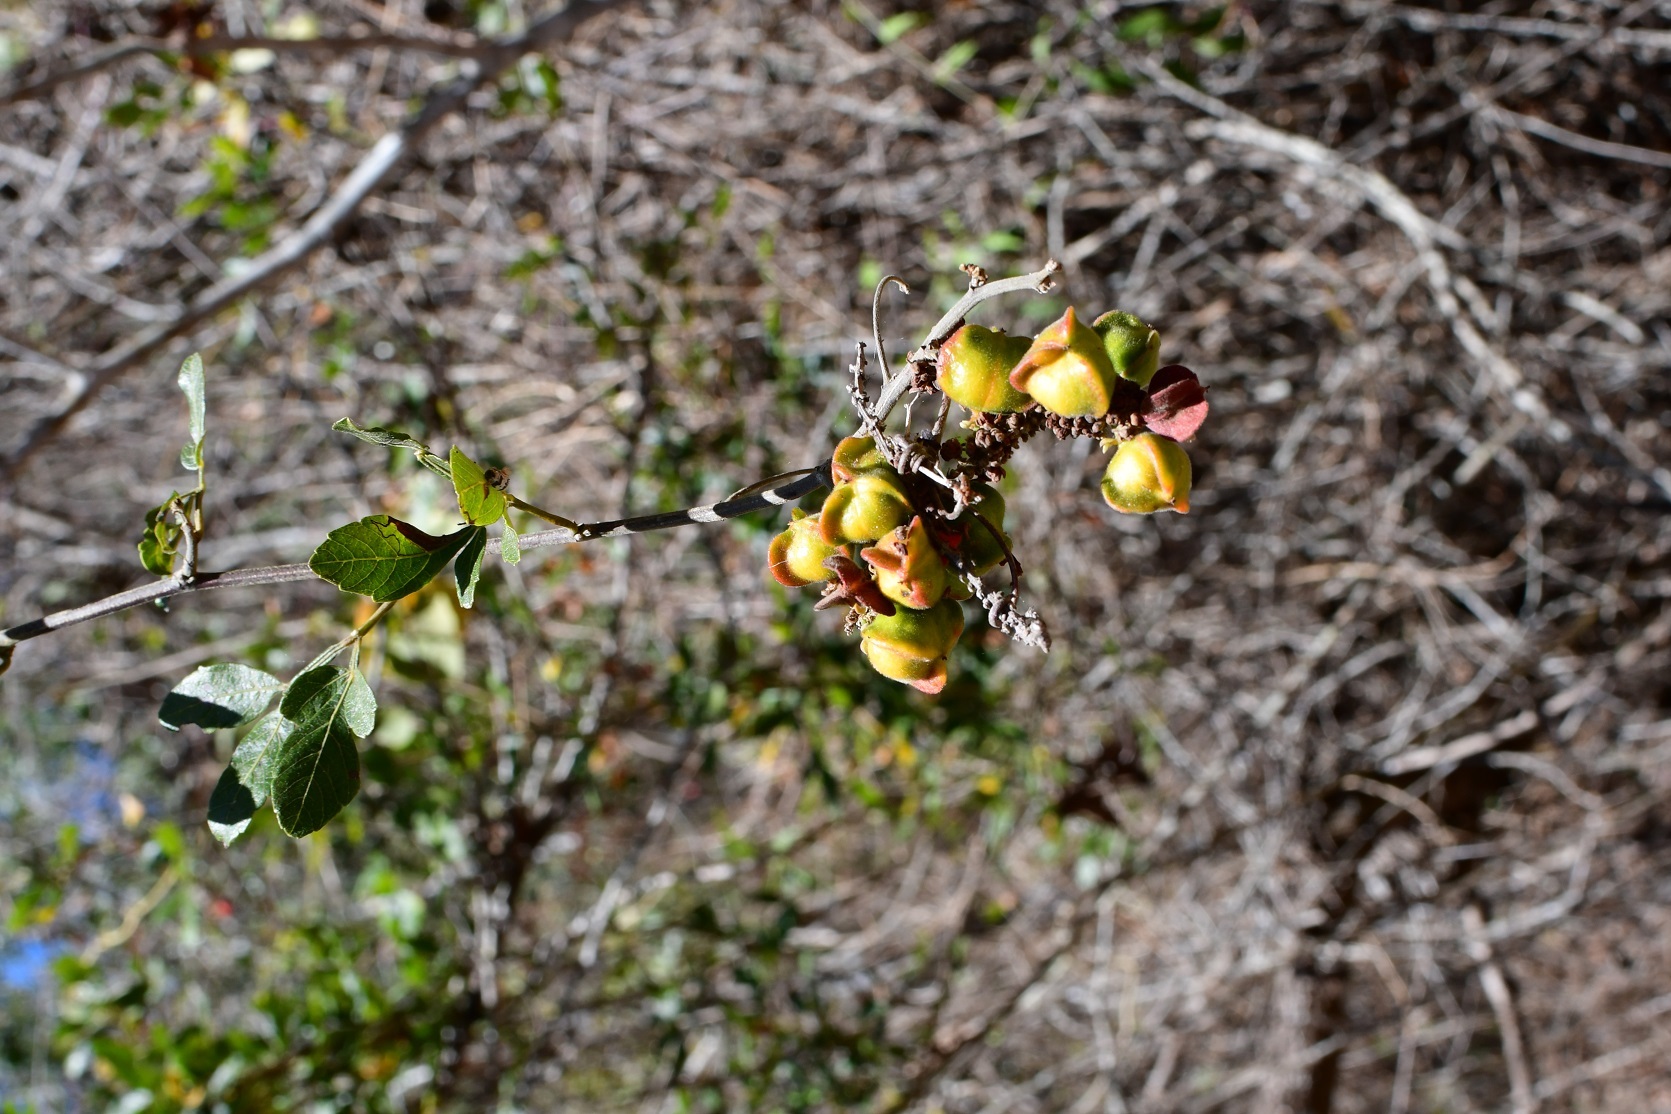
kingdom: Plantae
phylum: Tracheophyta
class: Magnoliopsida
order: Sapindales
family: Sapindaceae
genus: Paullinia
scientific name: Paullinia fuscescens
